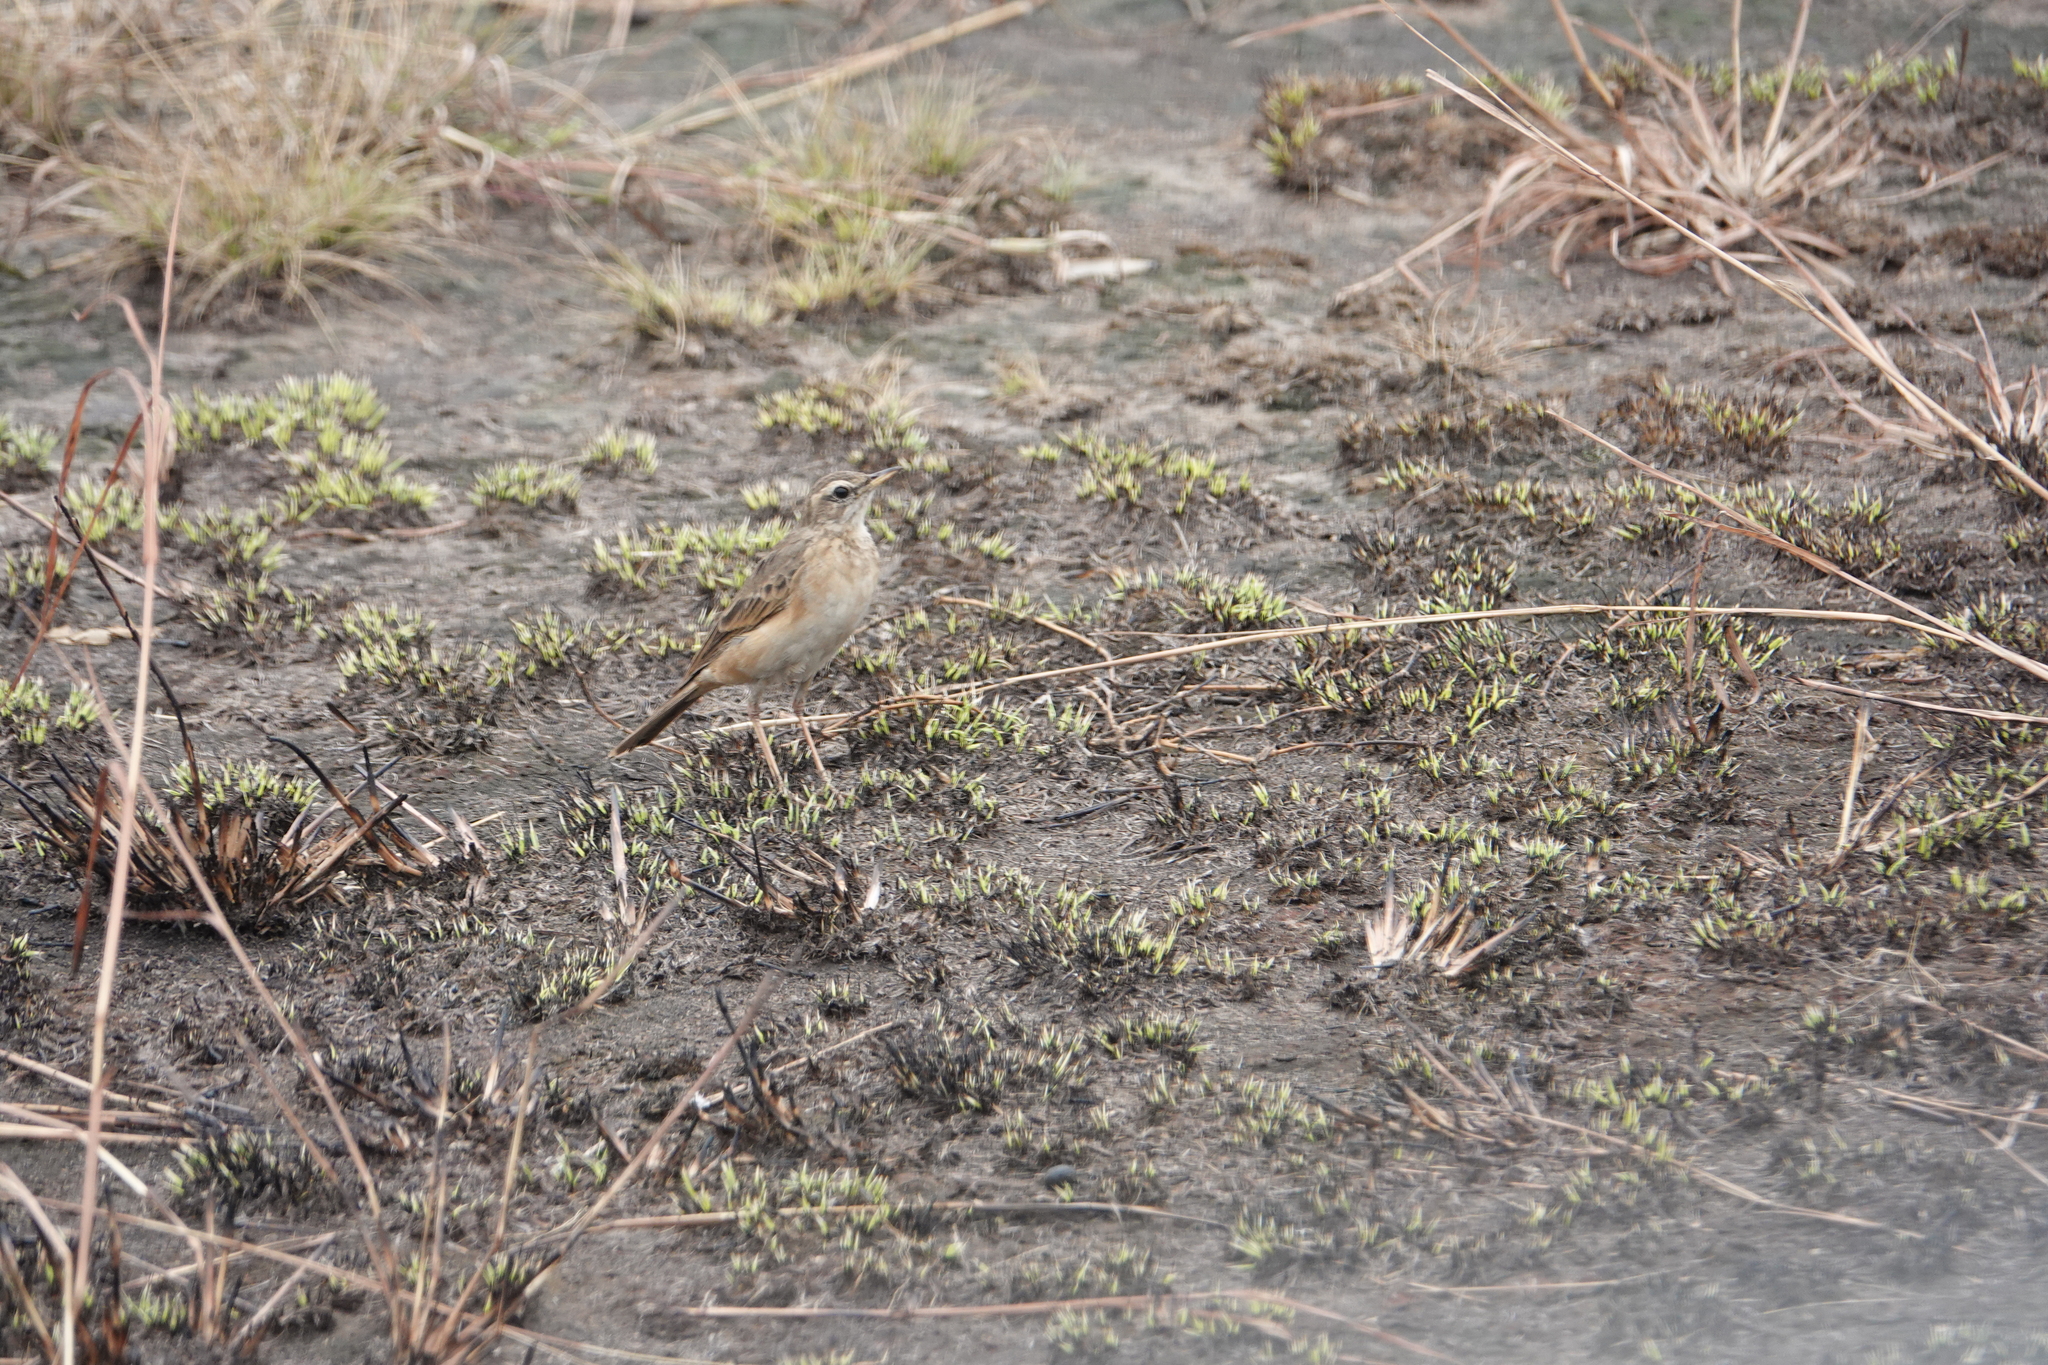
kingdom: Animalia
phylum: Chordata
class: Aves
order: Passeriformes
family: Motacillidae
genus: Anthus
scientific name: Anthus leucophrys
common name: Plain-backed pipit
